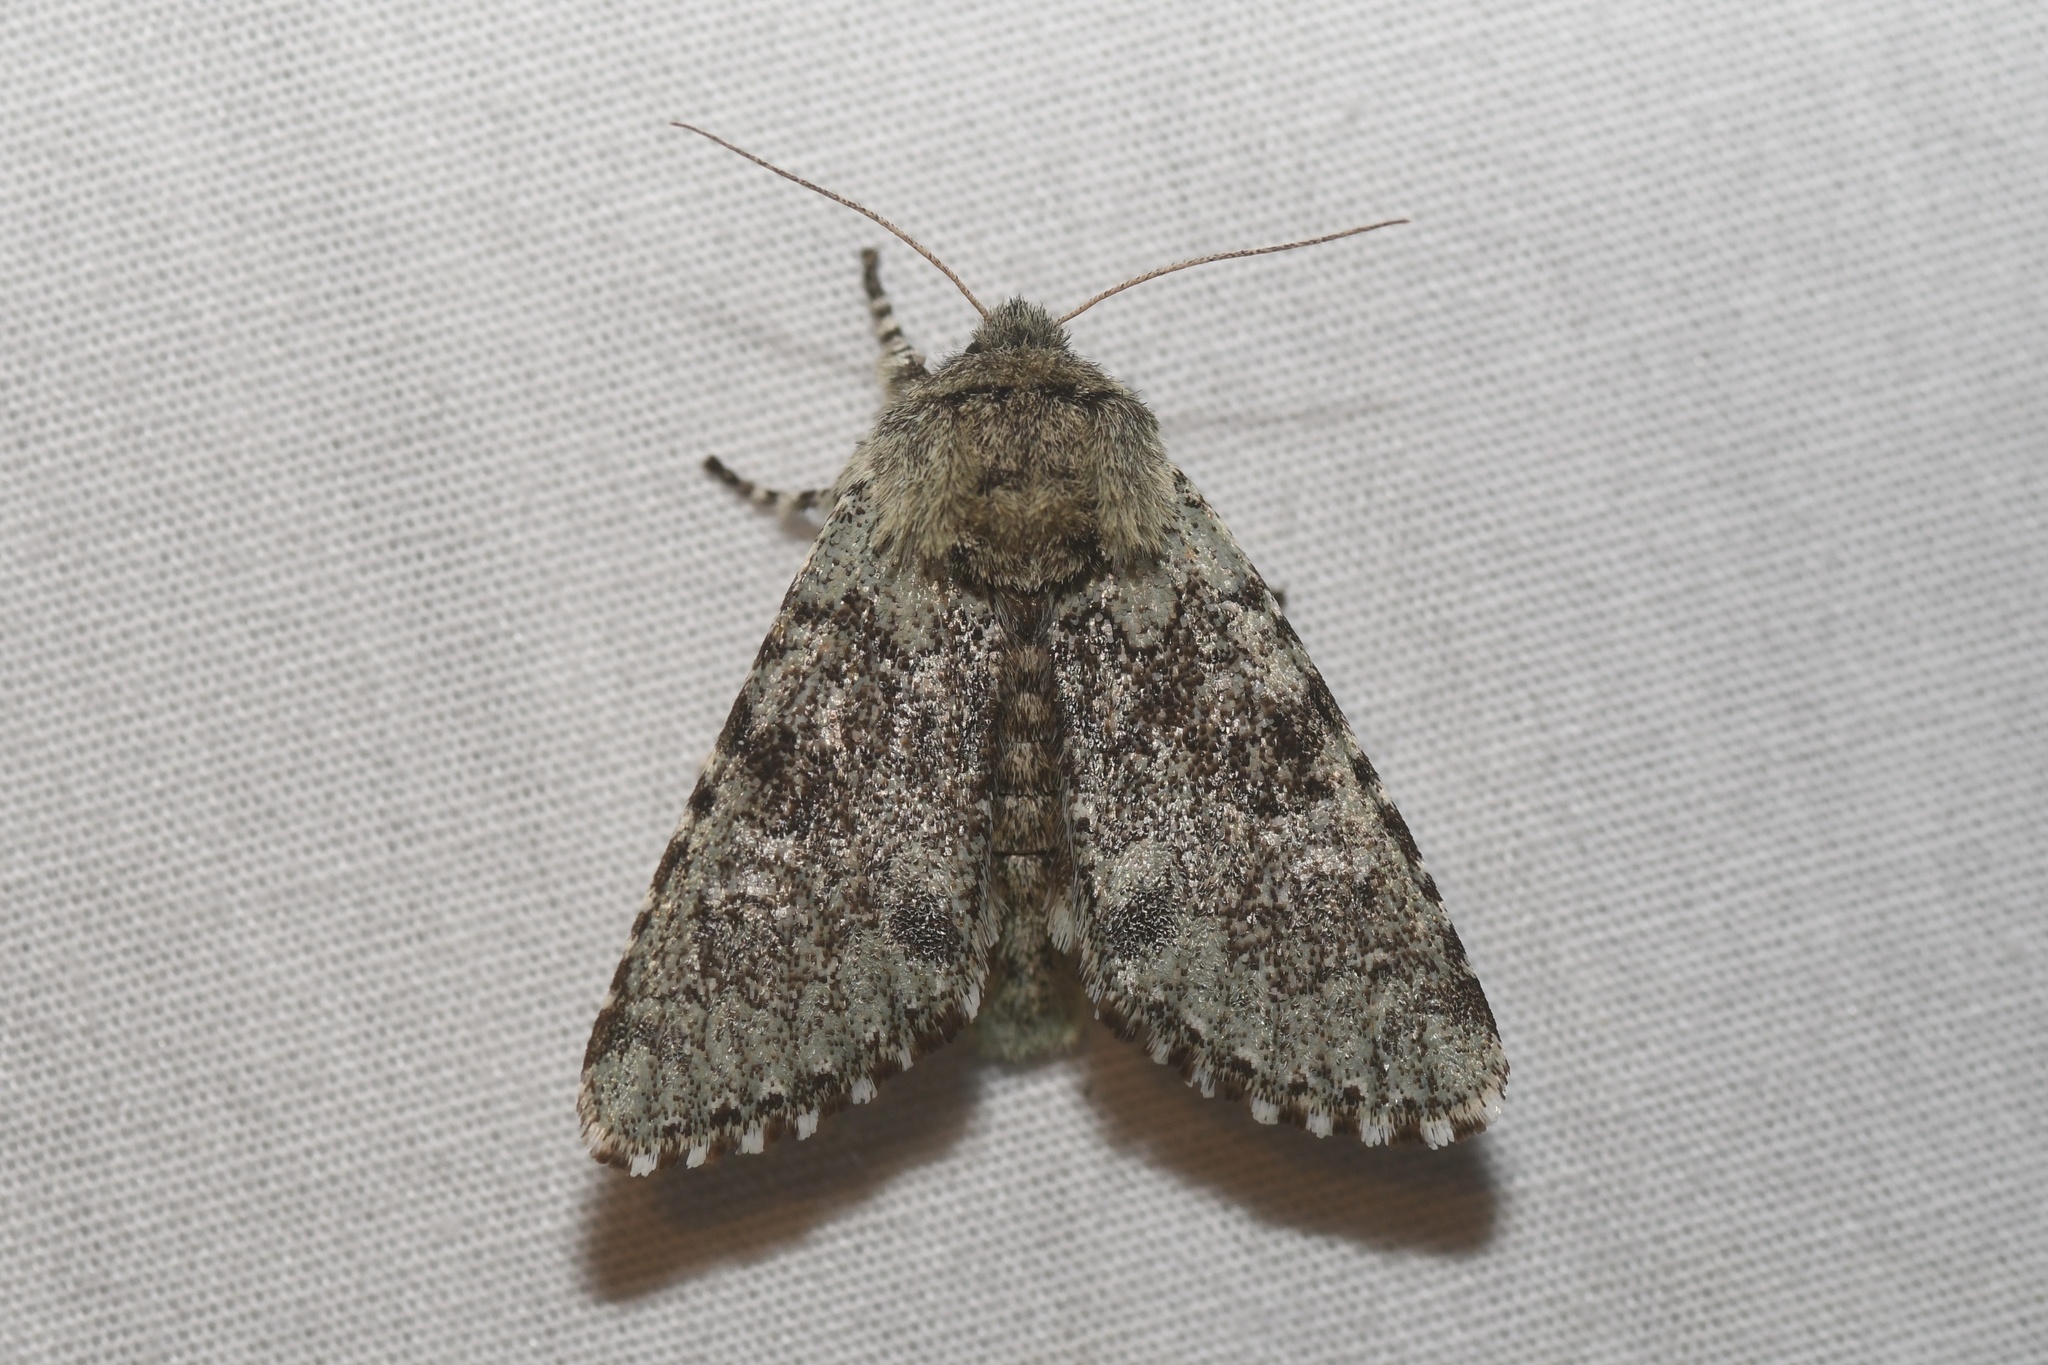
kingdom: Animalia
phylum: Arthropoda
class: Insecta
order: Lepidoptera
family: Noctuidae
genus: Feralia
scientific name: Feralia major
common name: Major sallow
